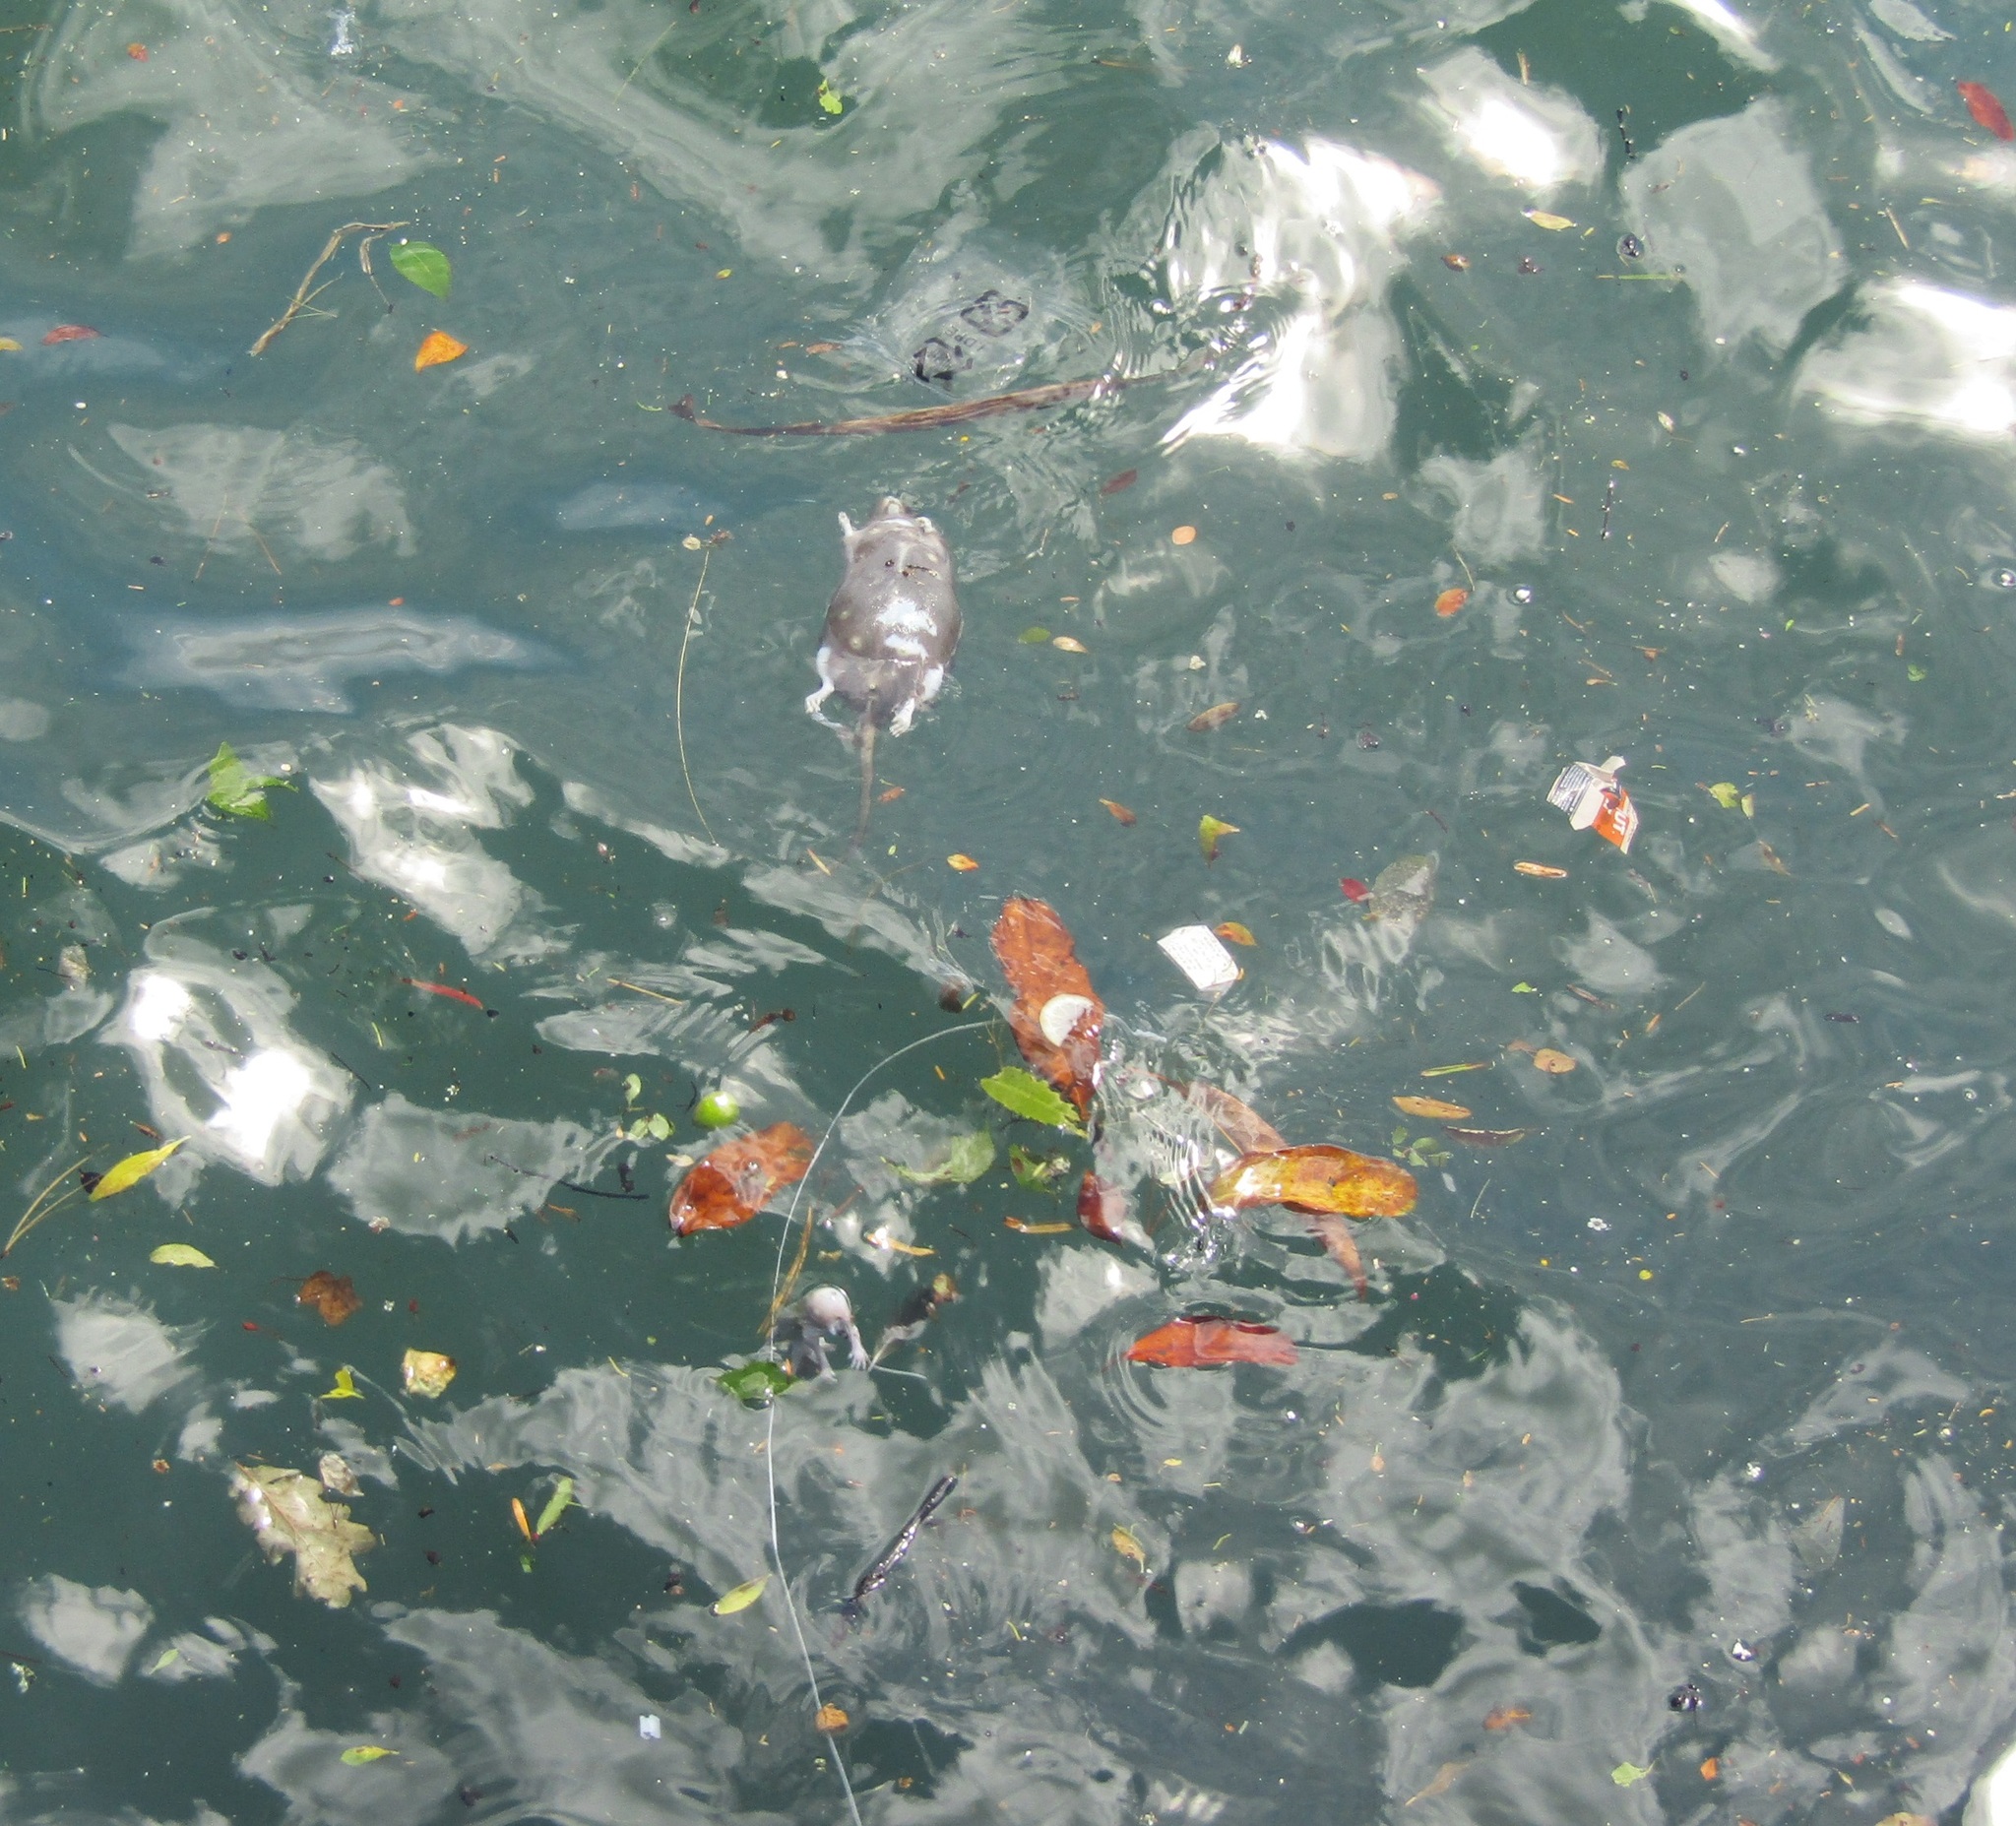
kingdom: Animalia
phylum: Chordata
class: Mammalia
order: Rodentia
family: Muridae
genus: Rattus
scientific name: Rattus norvegicus
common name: Brown rat
